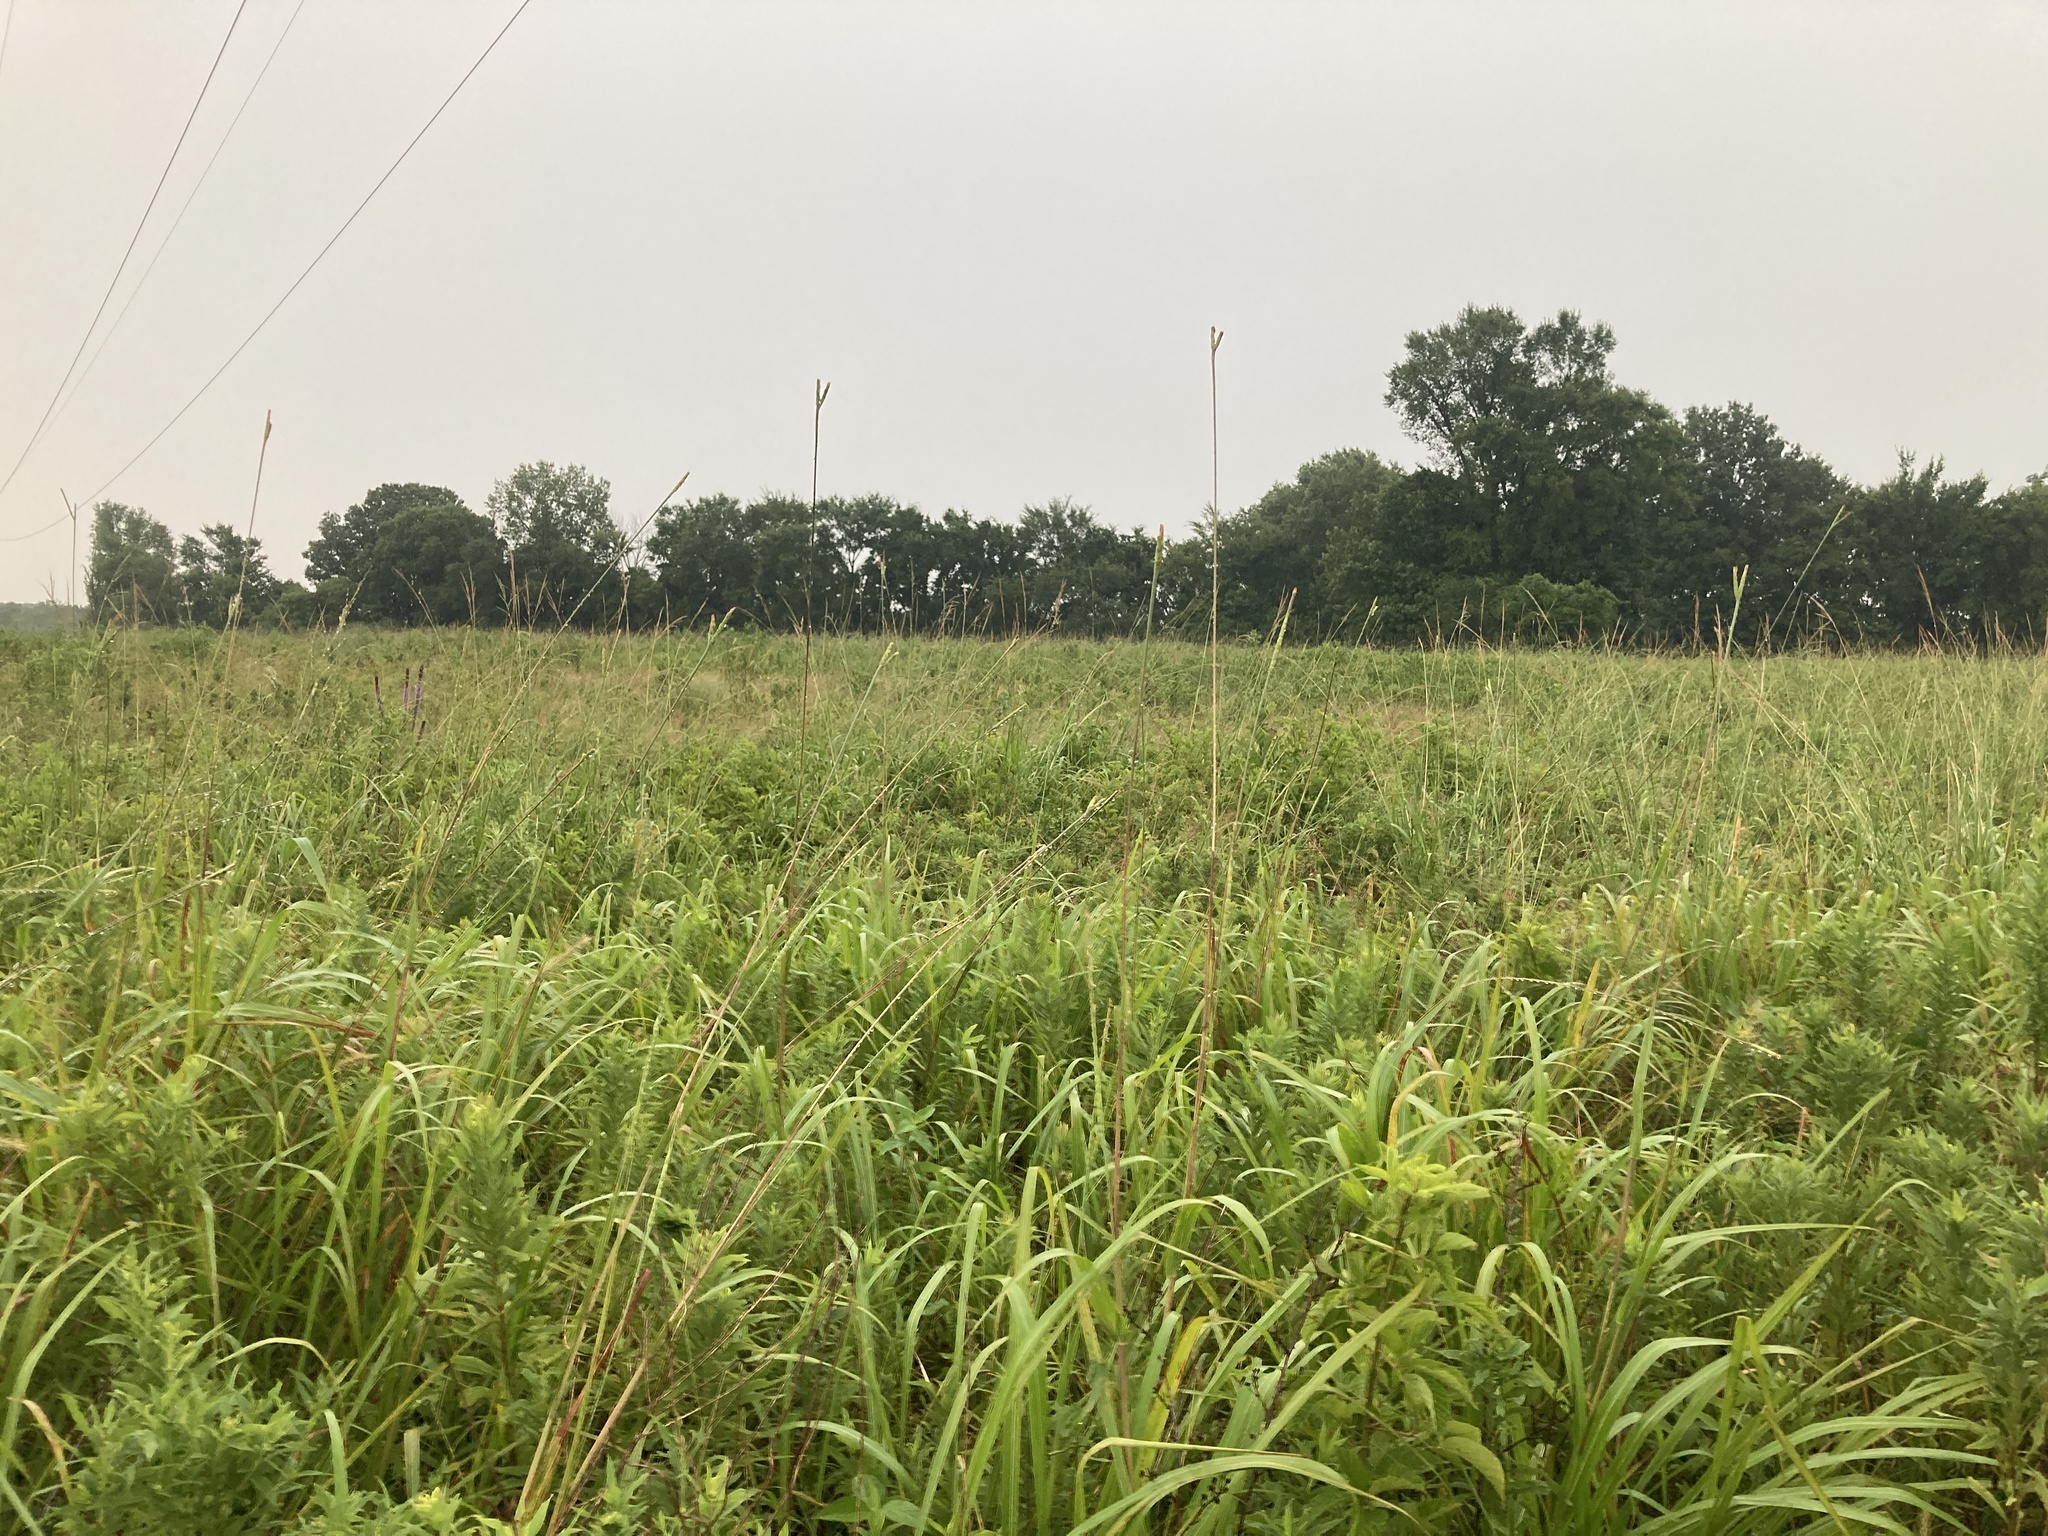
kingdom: Plantae
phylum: Tracheophyta
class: Liliopsida
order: Poales
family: Poaceae
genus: Tripsacum
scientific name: Tripsacum dactyloides
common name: Buffalo-grass
